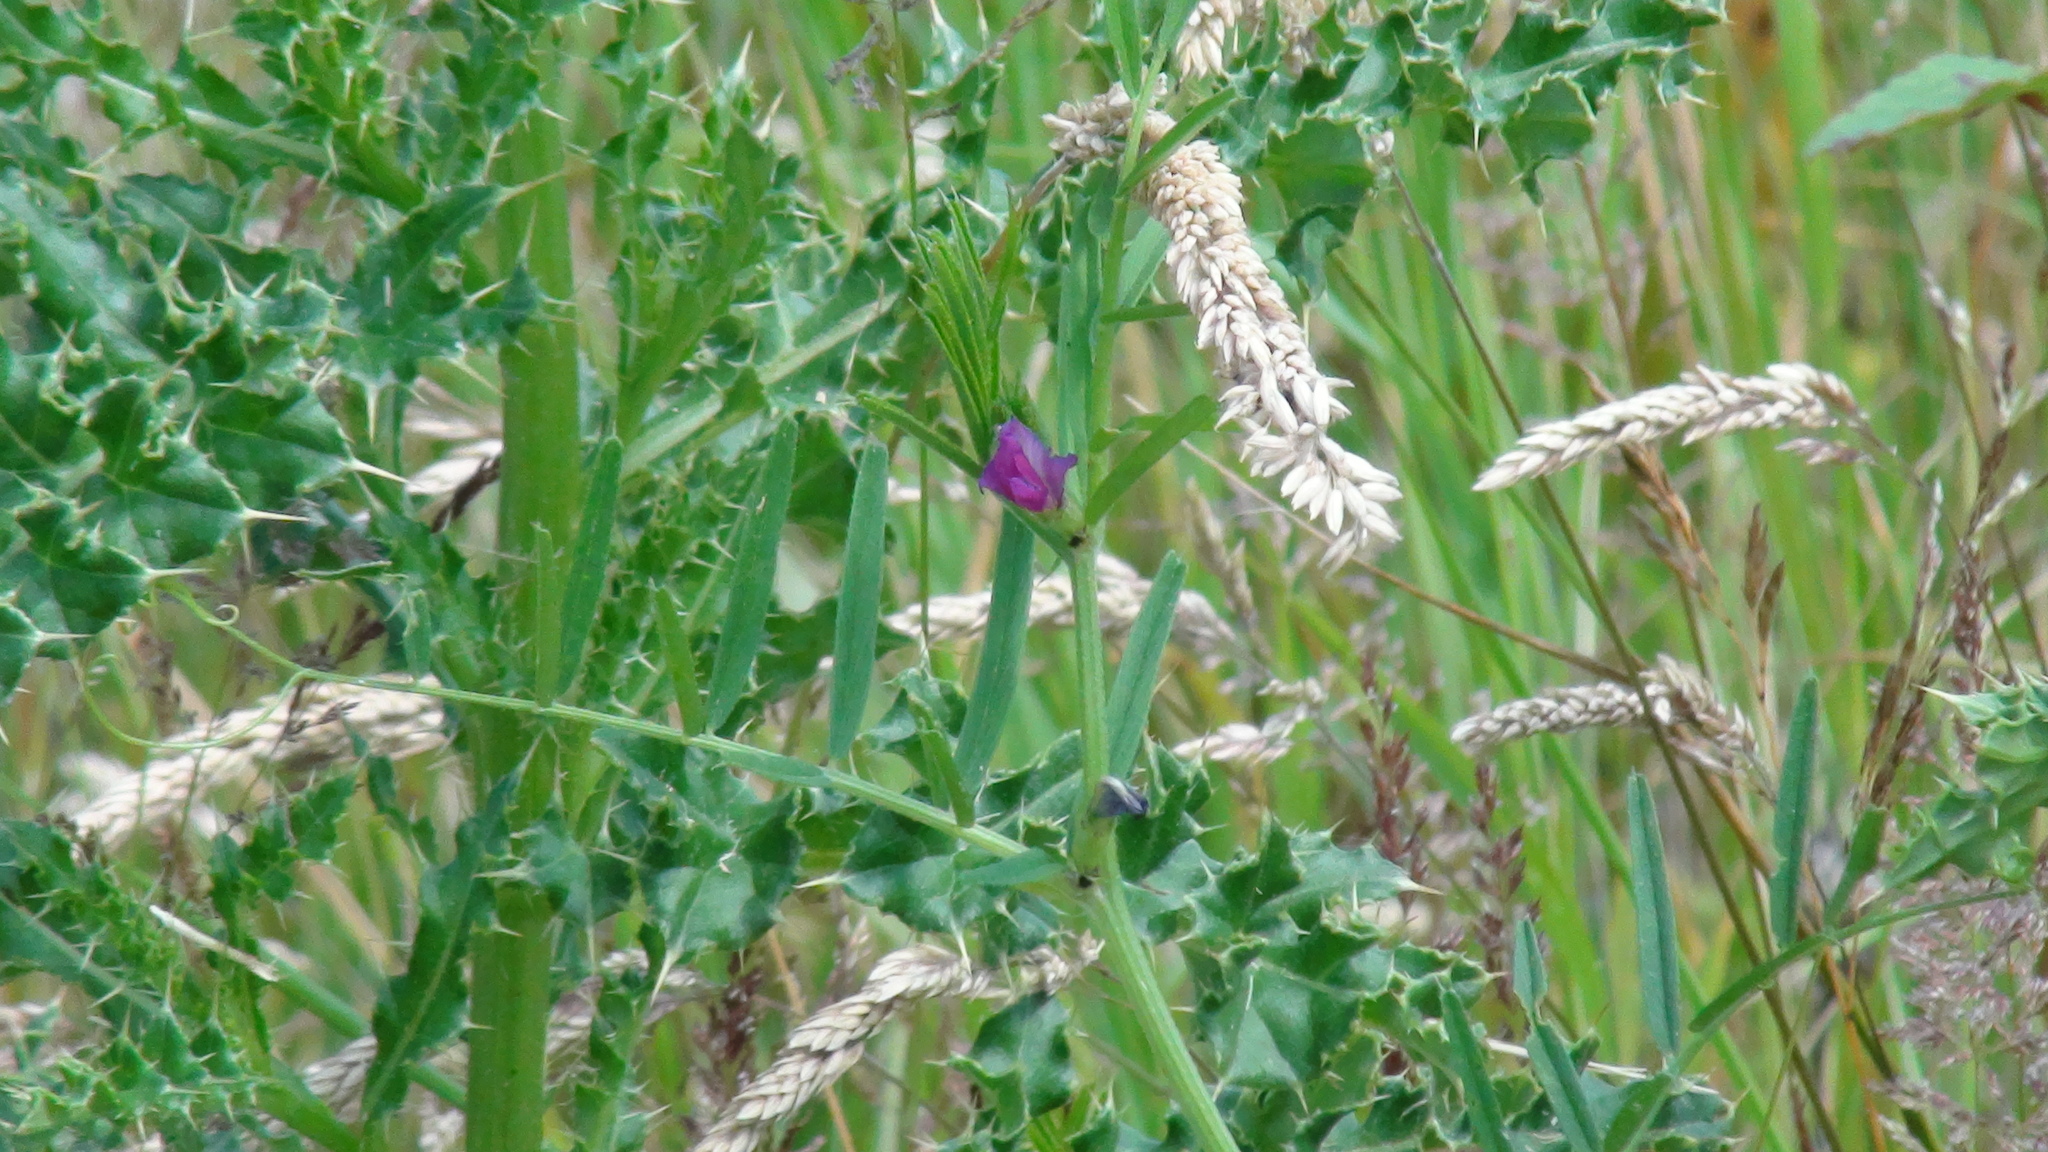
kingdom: Plantae
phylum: Tracheophyta
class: Magnoliopsida
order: Fabales
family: Fabaceae
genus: Vicia
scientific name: Vicia sativa
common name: Garden vetch
